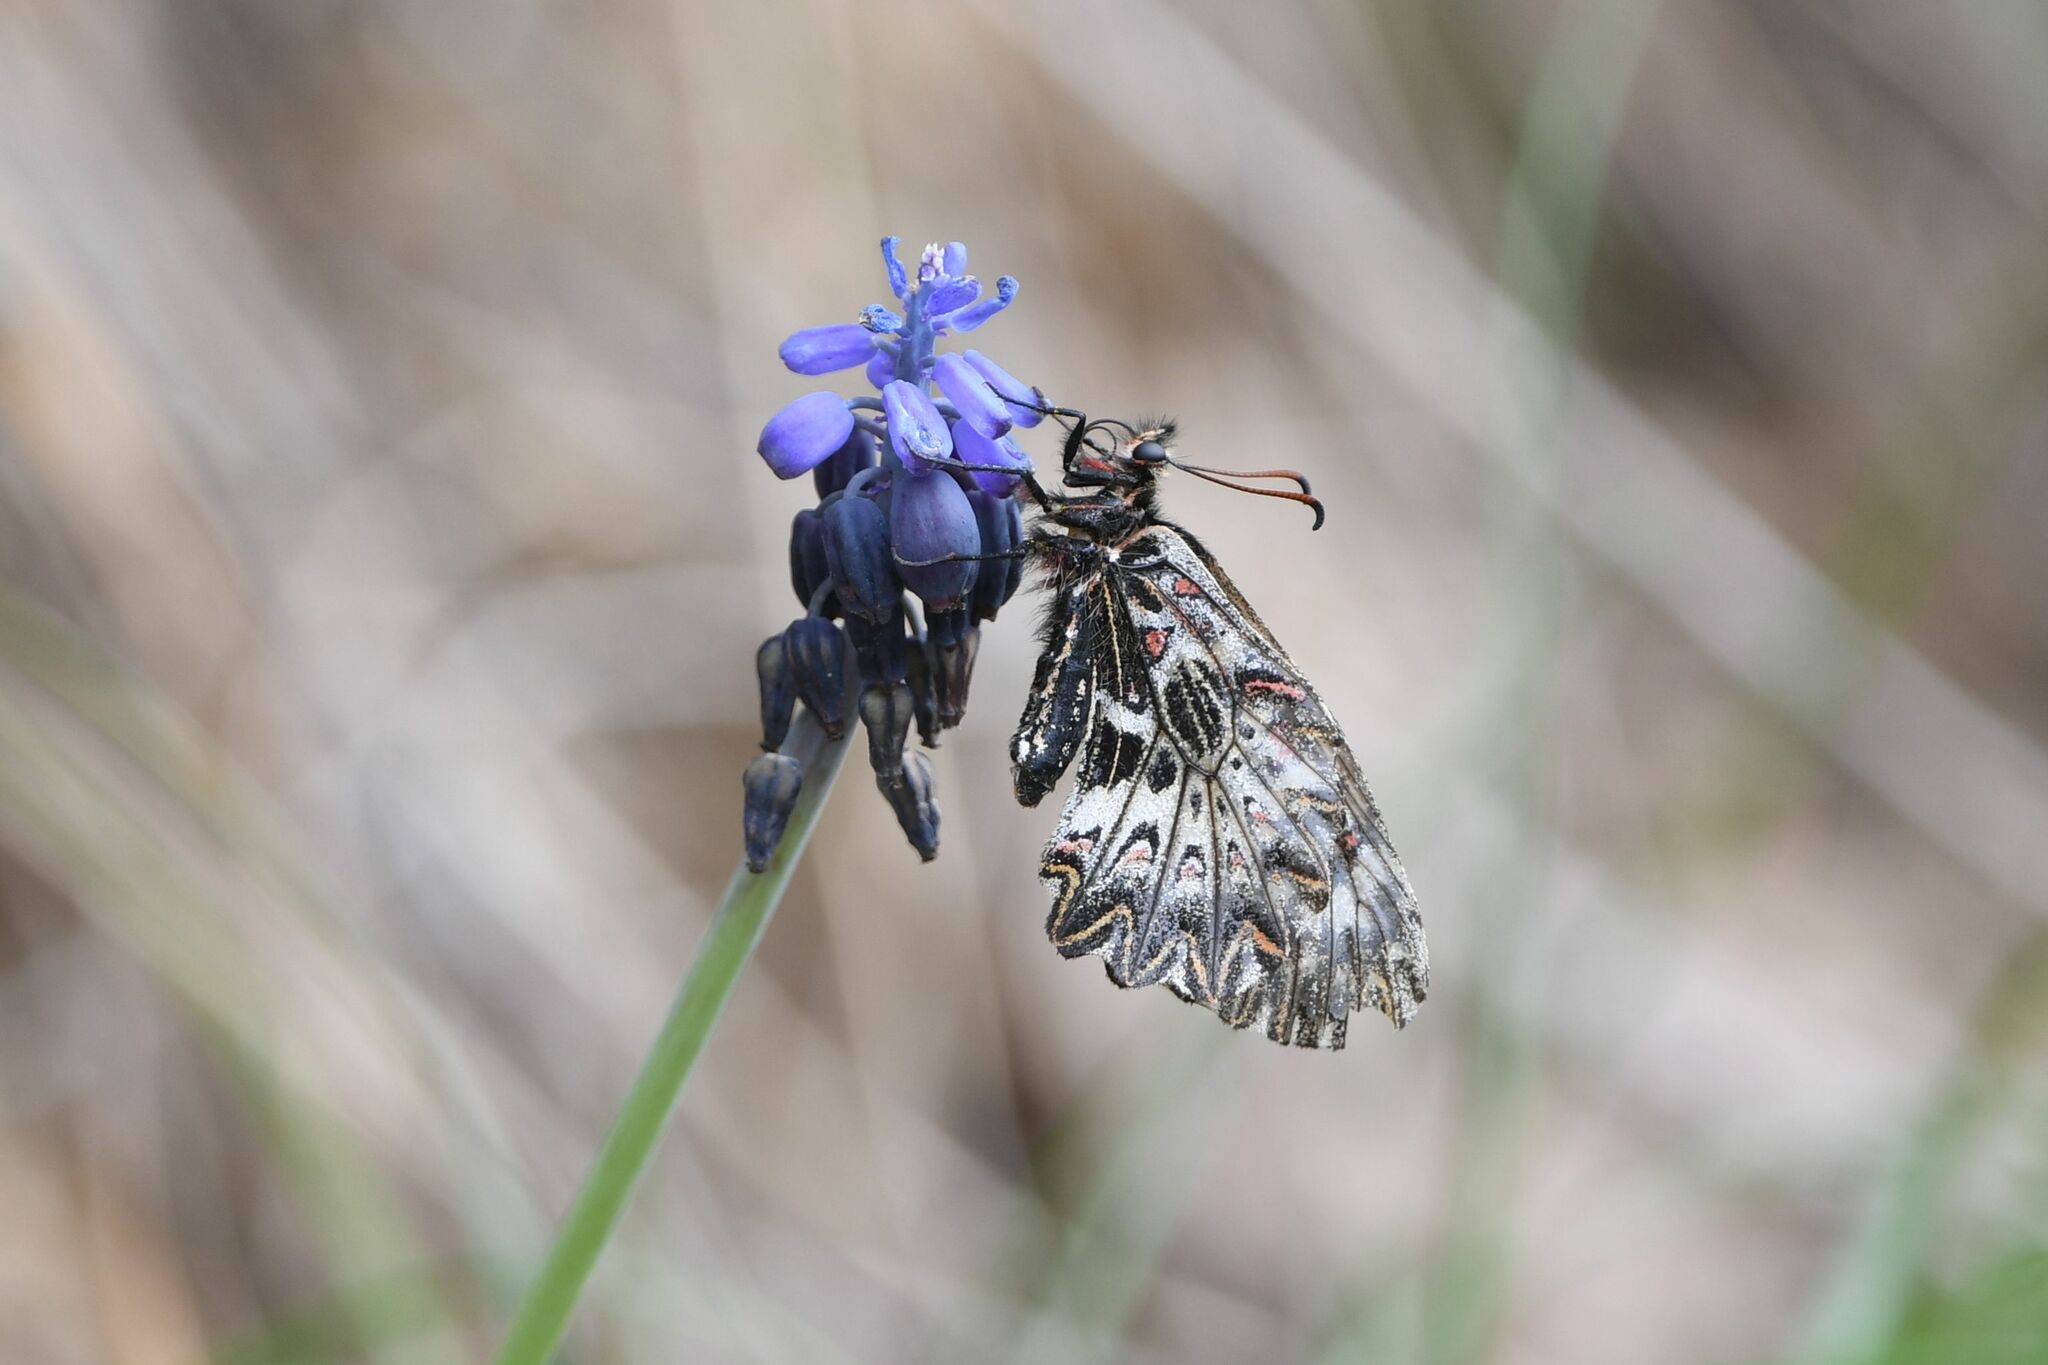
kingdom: Animalia
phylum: Arthropoda
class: Insecta
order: Lepidoptera
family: Papilionidae
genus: Zerynthia
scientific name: Zerynthia polyxena
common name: Southern festoon
